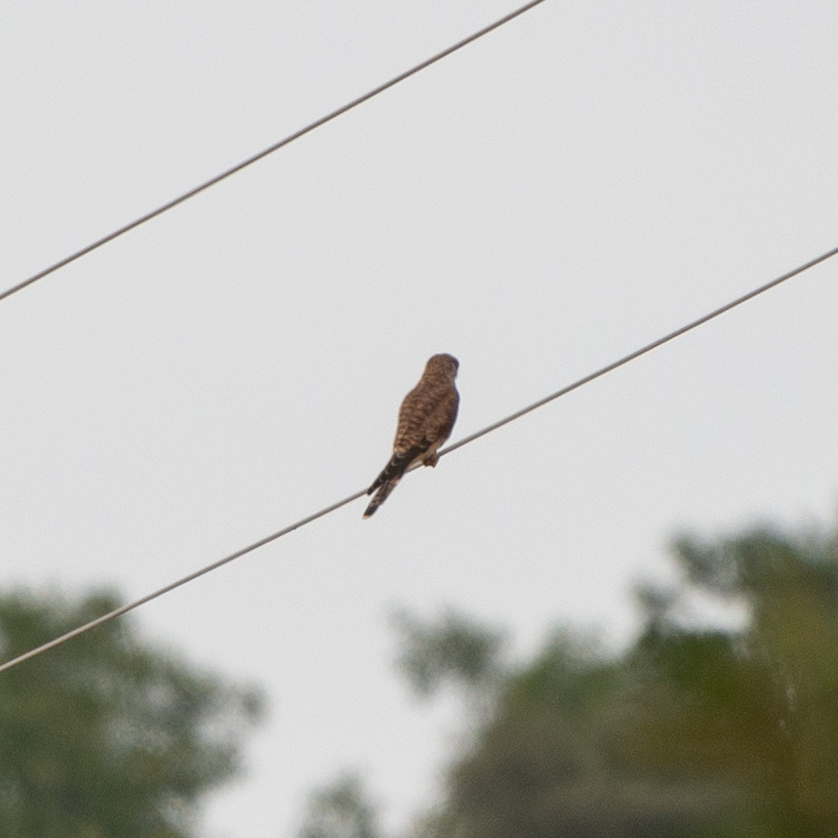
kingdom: Animalia
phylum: Chordata
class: Aves
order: Falconiformes
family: Falconidae
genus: Falco
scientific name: Falco tinnunculus
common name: Common kestrel
